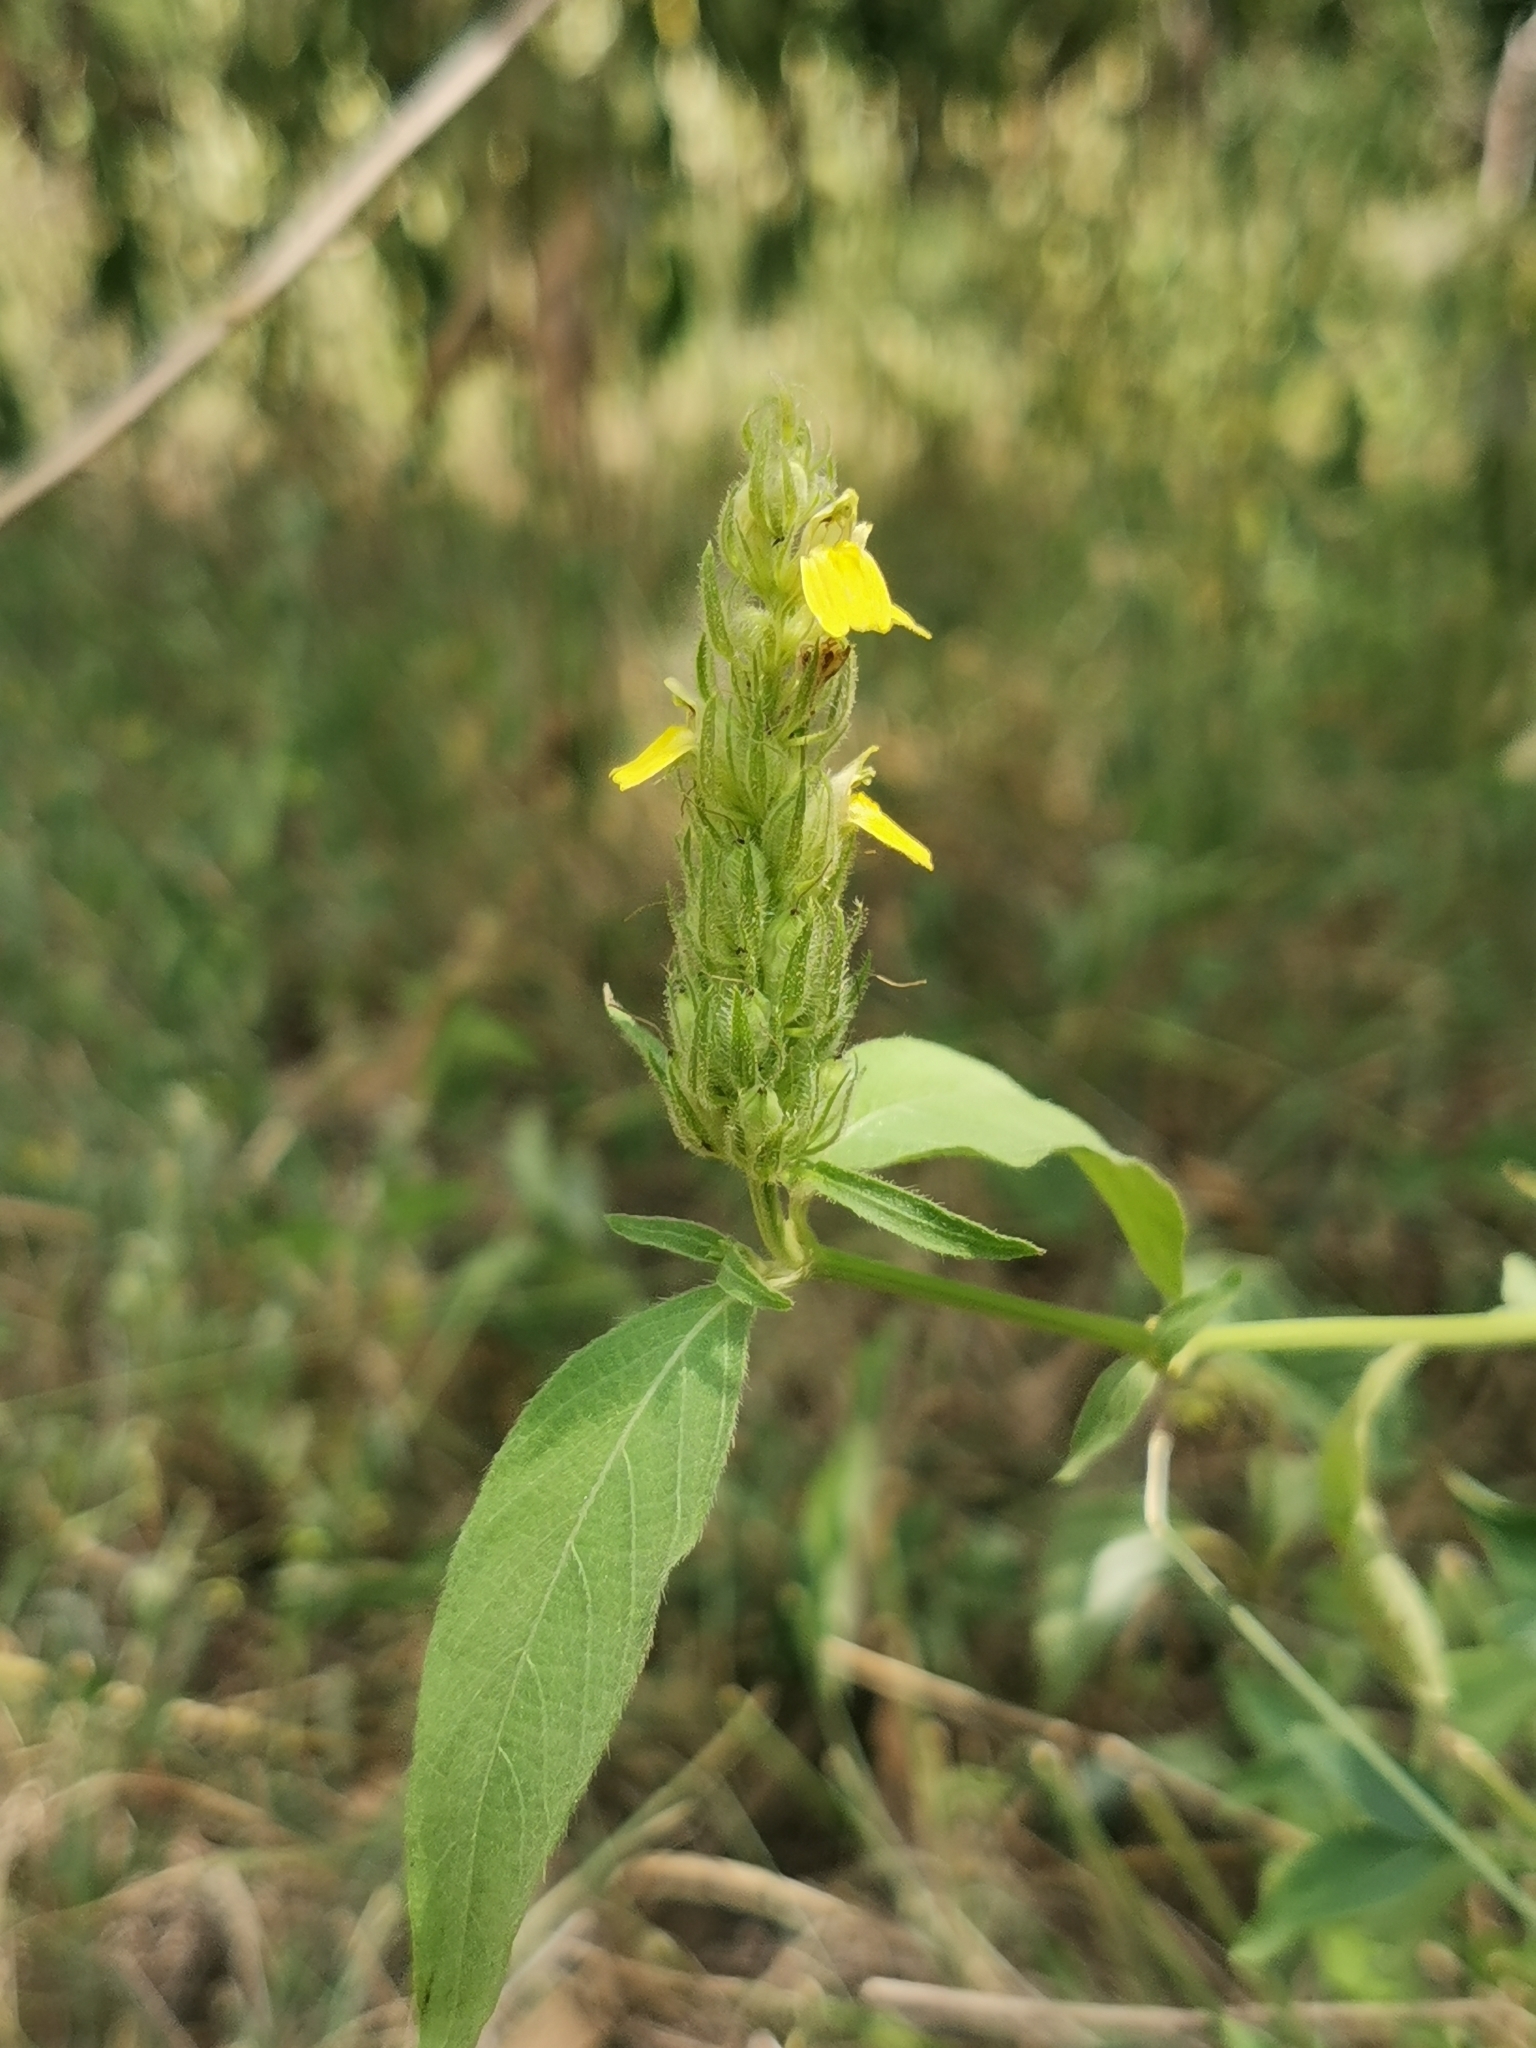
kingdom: Plantae
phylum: Tracheophyta
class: Magnoliopsida
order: Lamiales
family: Acanthaceae
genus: Justicia
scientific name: Justicia flava
